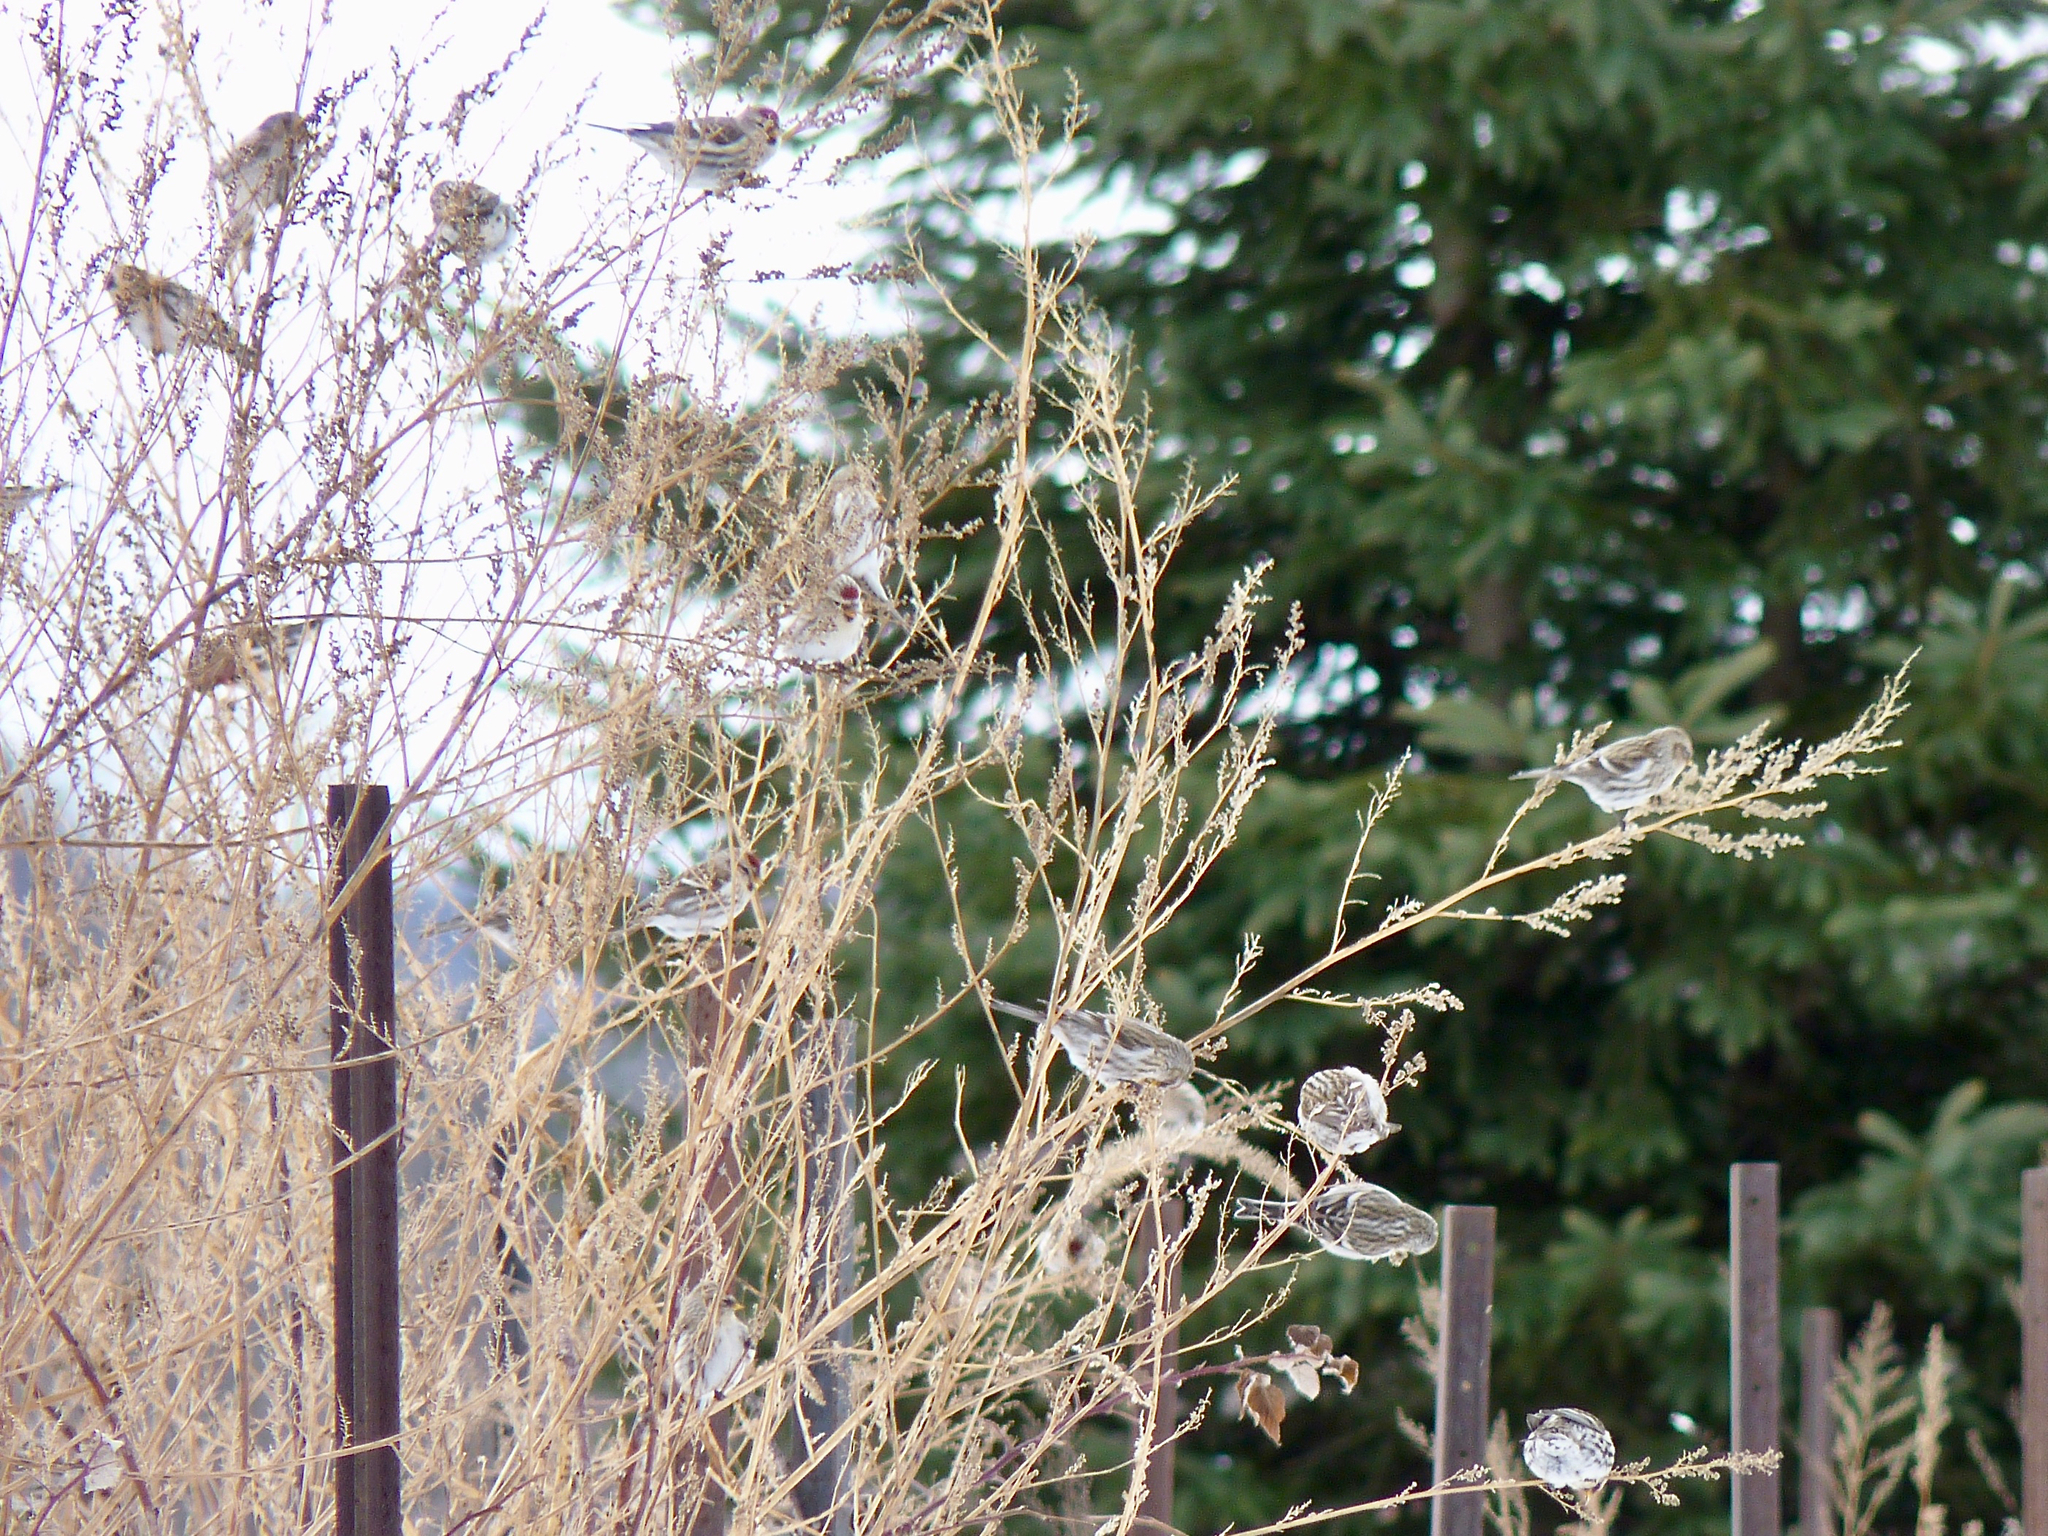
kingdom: Animalia
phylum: Chordata
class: Aves
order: Passeriformes
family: Fringillidae
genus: Acanthis
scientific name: Acanthis flammea
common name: Common redpoll
